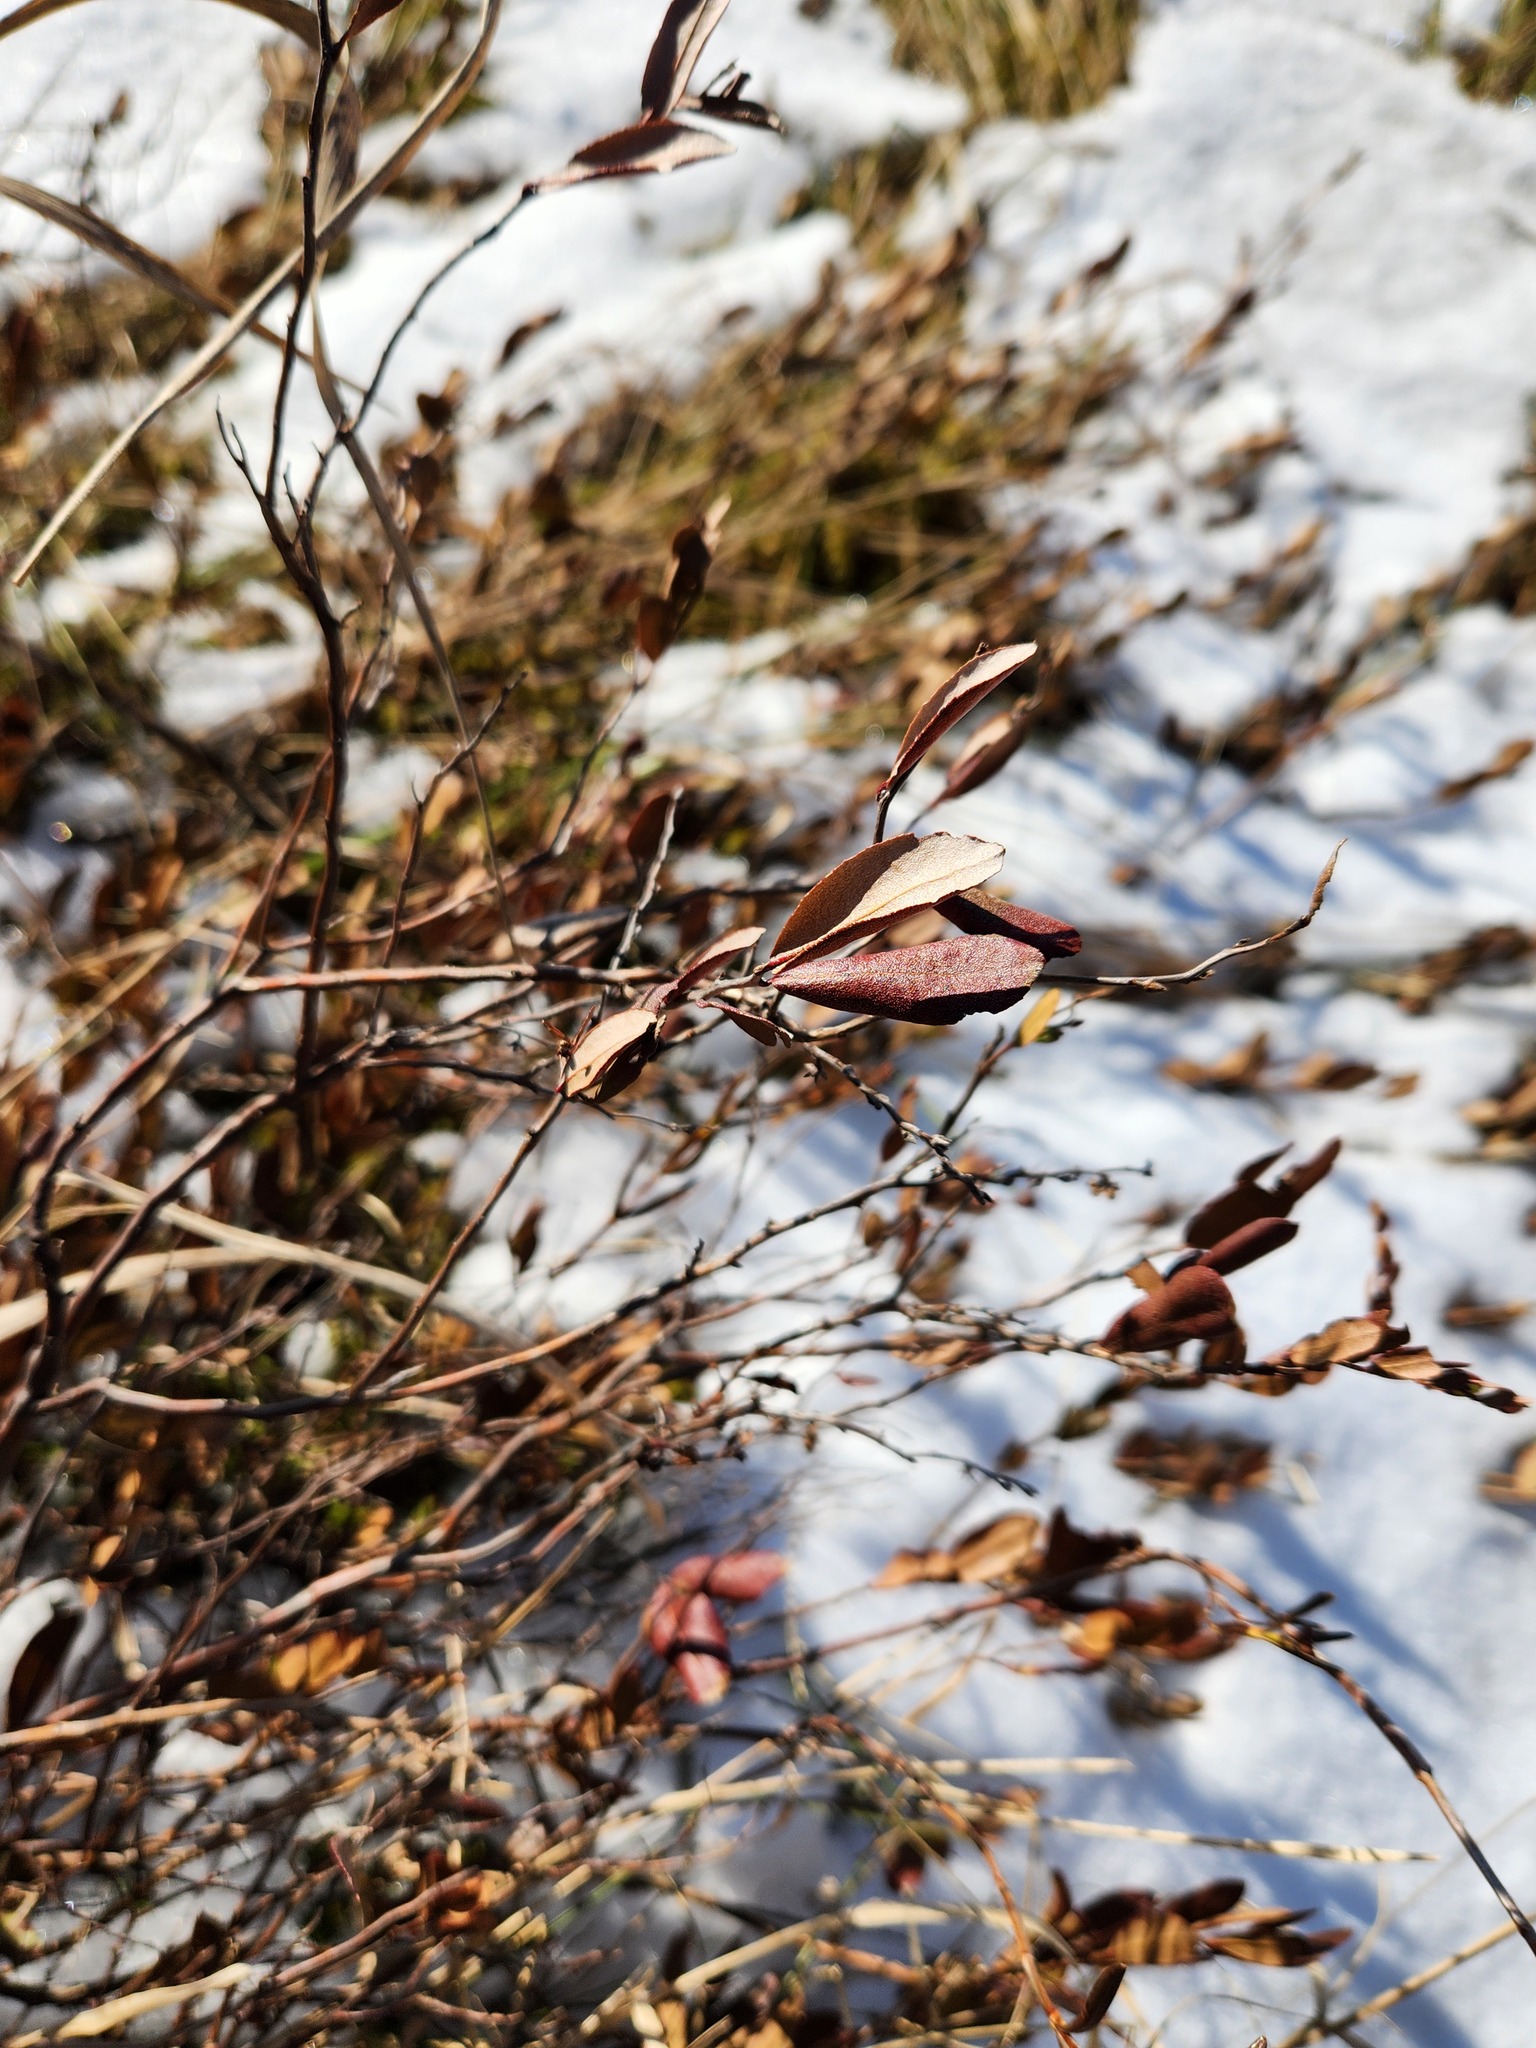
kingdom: Plantae
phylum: Tracheophyta
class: Magnoliopsida
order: Ericales
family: Ericaceae
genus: Chamaedaphne
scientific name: Chamaedaphne calyculata
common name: Leatherleaf
